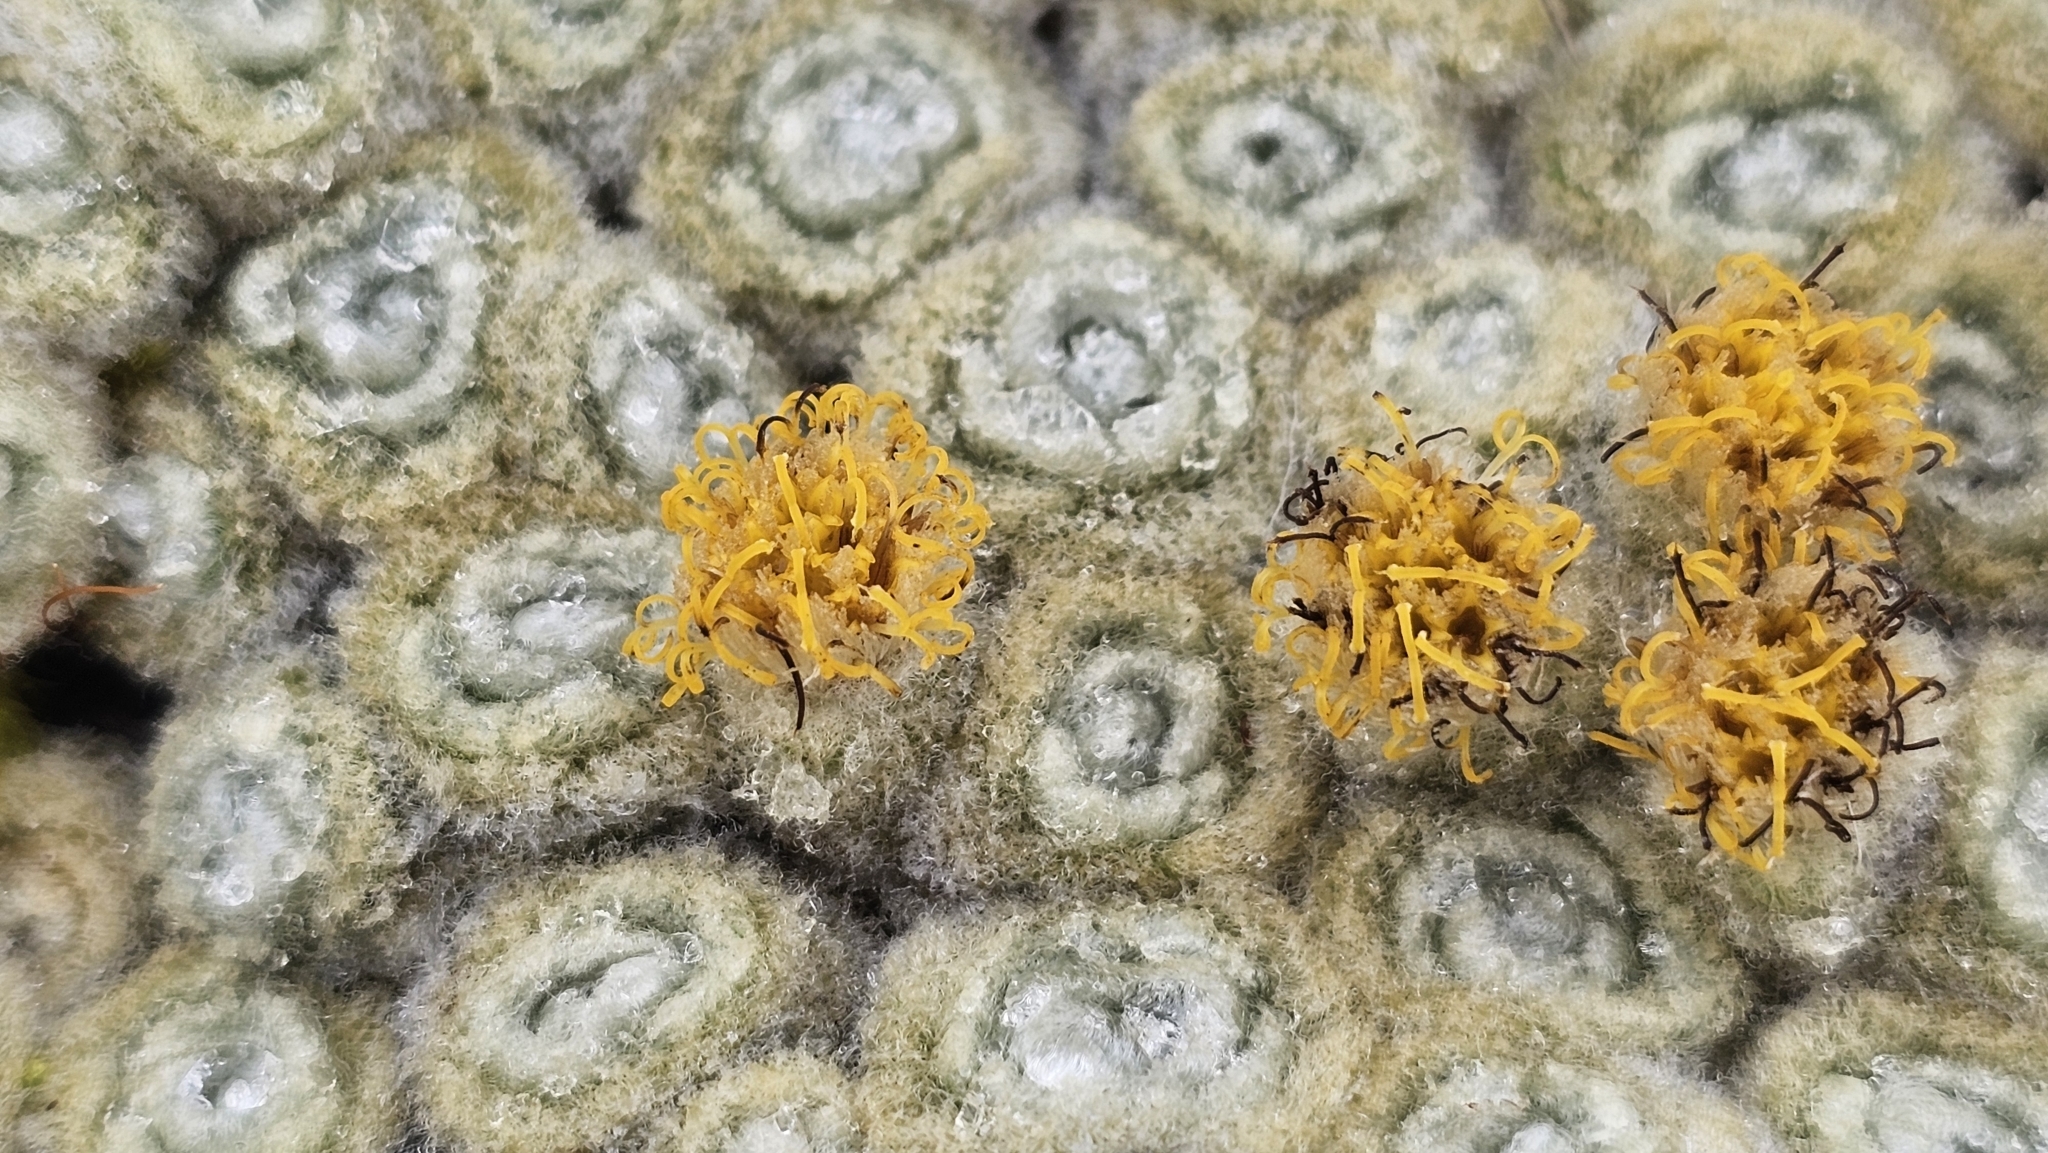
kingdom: Plantae
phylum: Tracheophyta
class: Magnoliopsida
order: Asterales
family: Asteraceae
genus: Haastia
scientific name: Haastia pulvinaris
